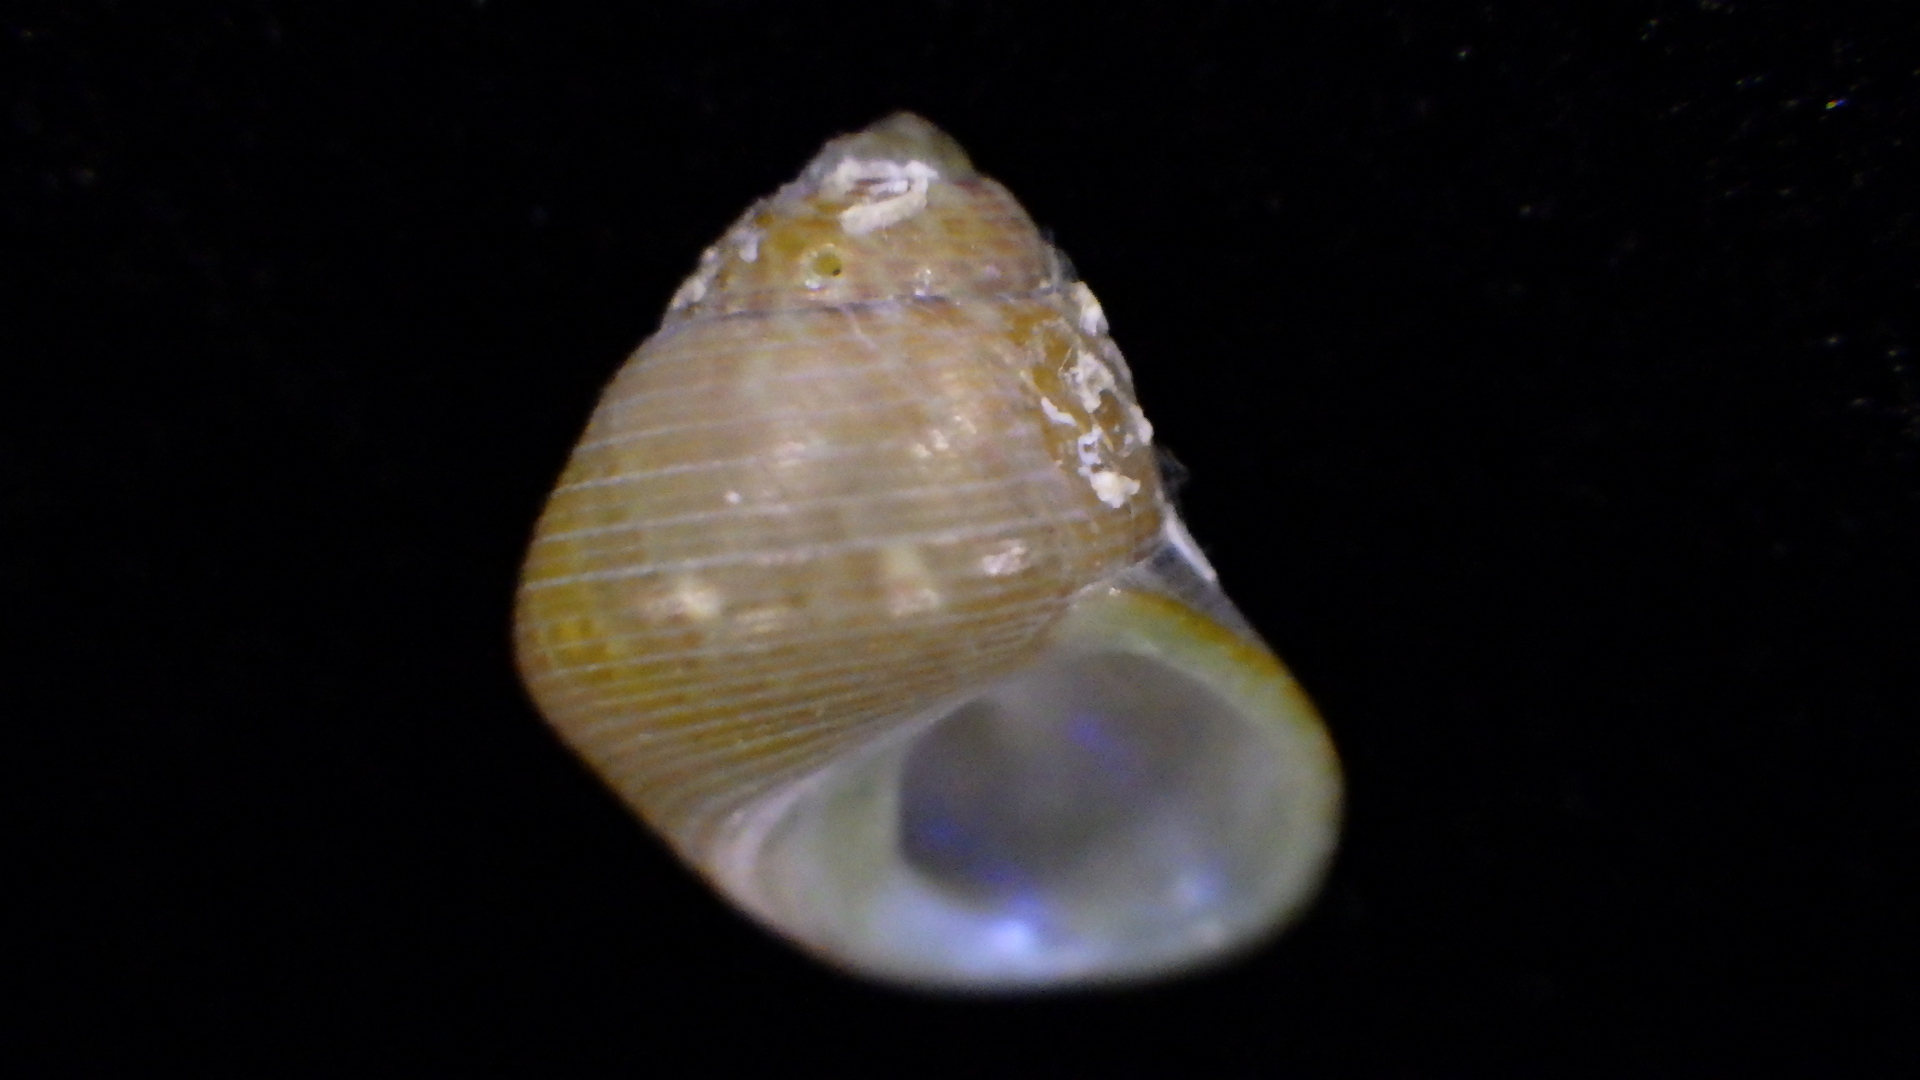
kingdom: Animalia
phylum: Mollusca
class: Gastropoda
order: Trochida
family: Trochidae
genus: Cantharidus
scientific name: Cantharidus dilatatus
